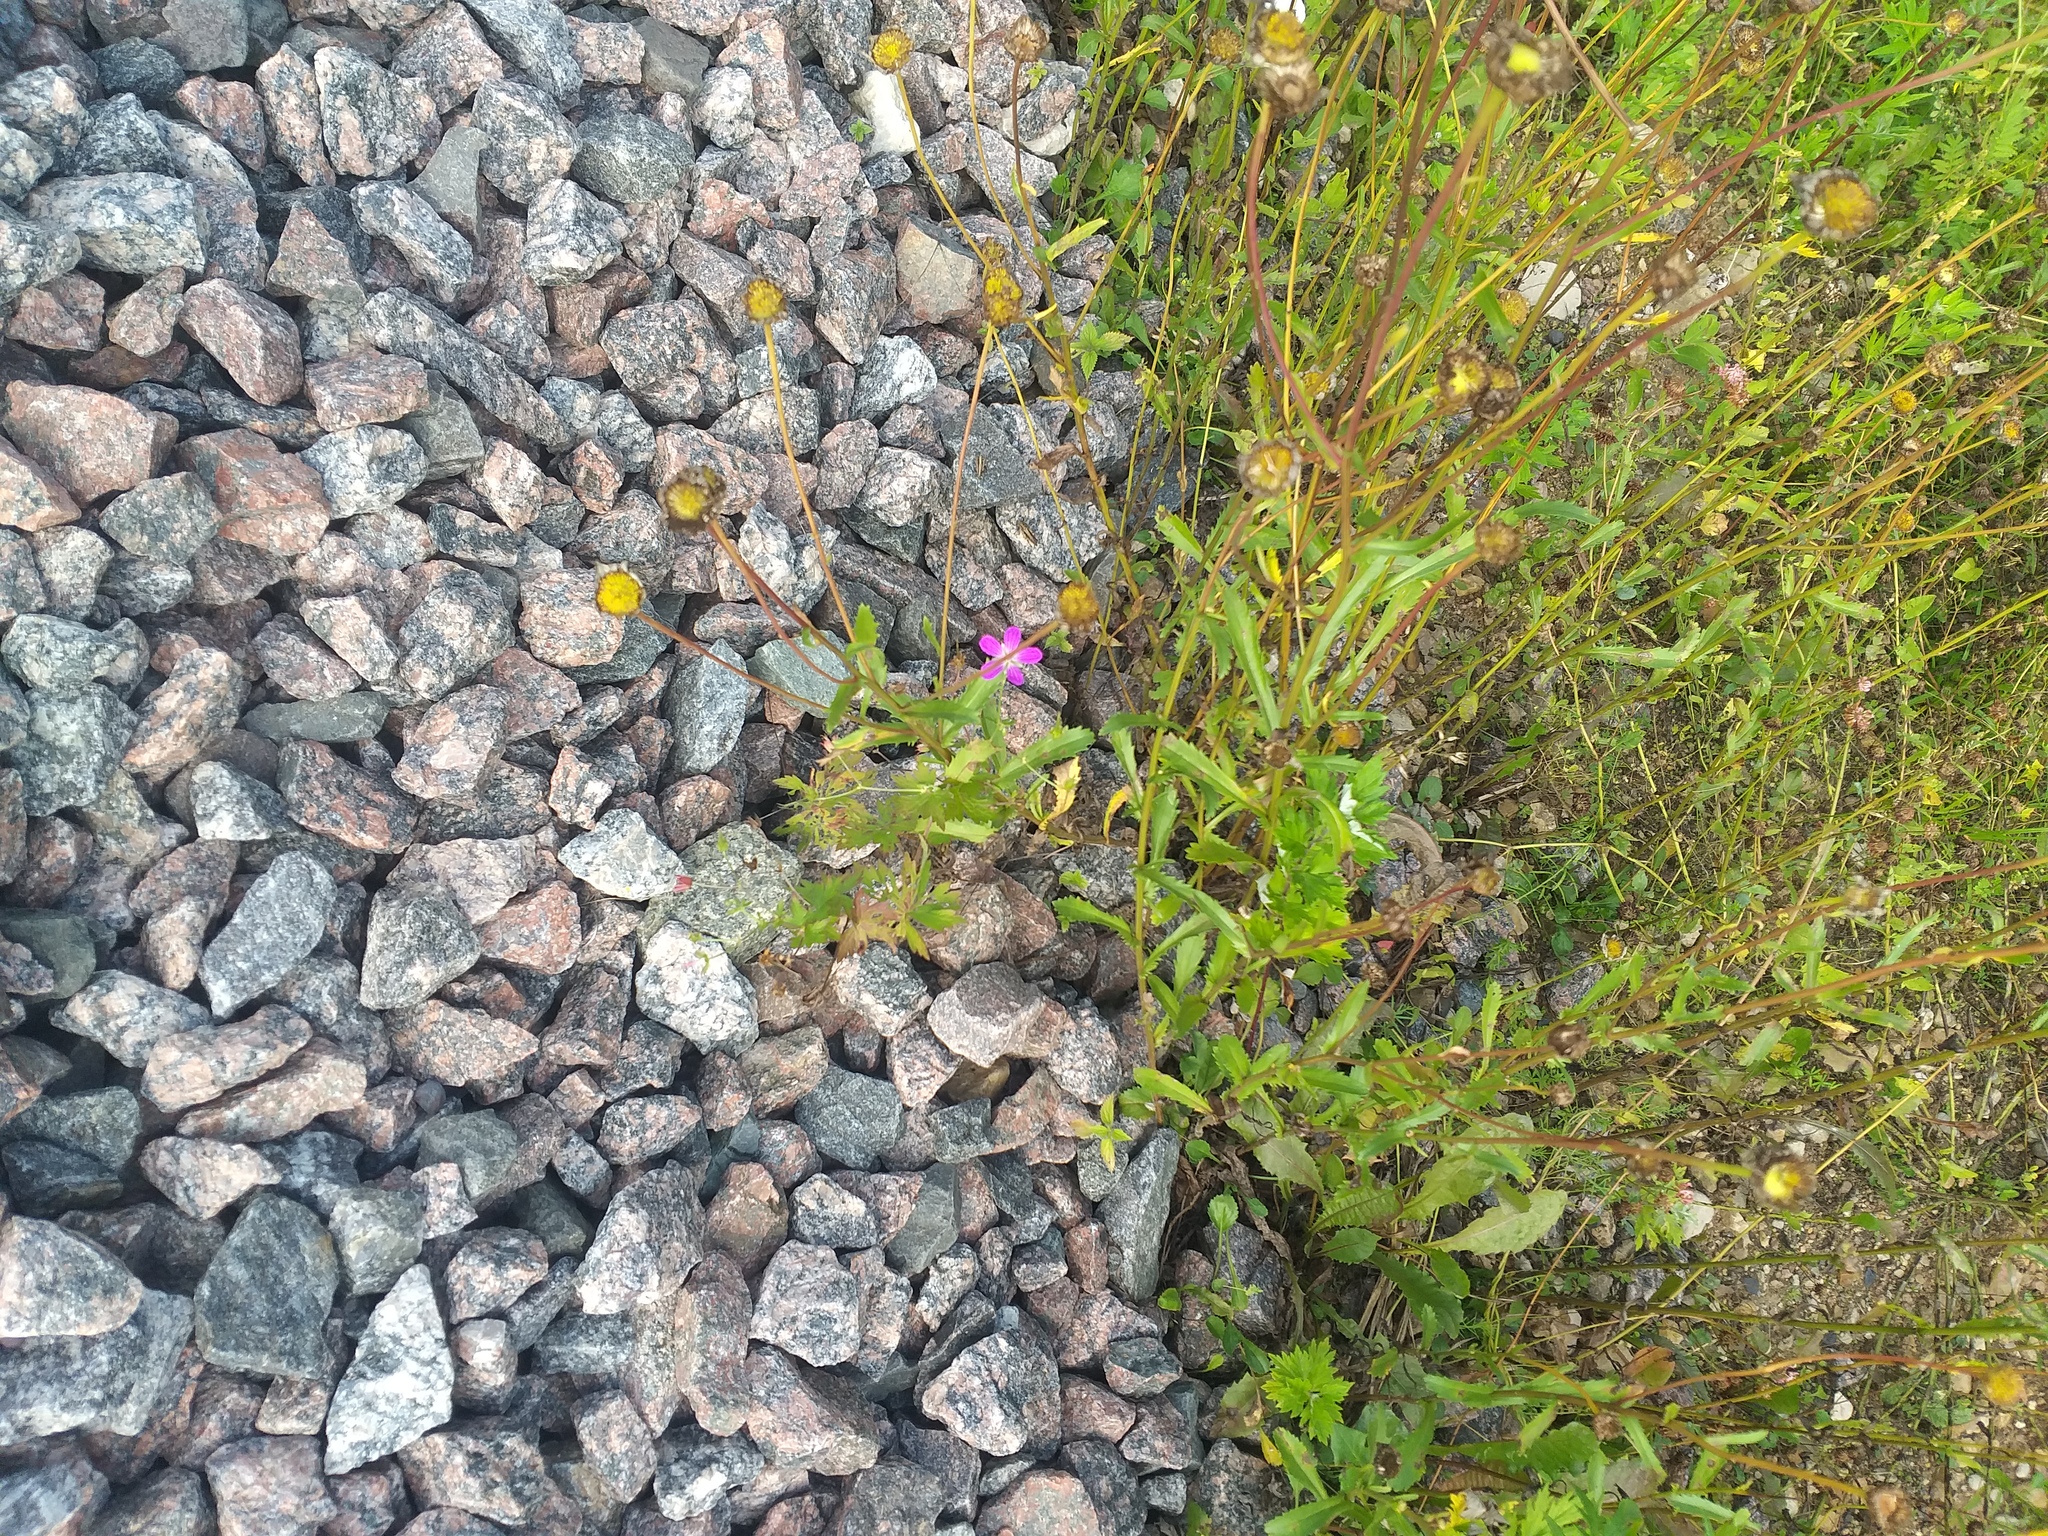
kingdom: Plantae
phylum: Tracheophyta
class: Magnoliopsida
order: Asterales
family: Asteraceae
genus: Leucanthemum
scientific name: Leucanthemum vulgare
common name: Oxeye daisy
